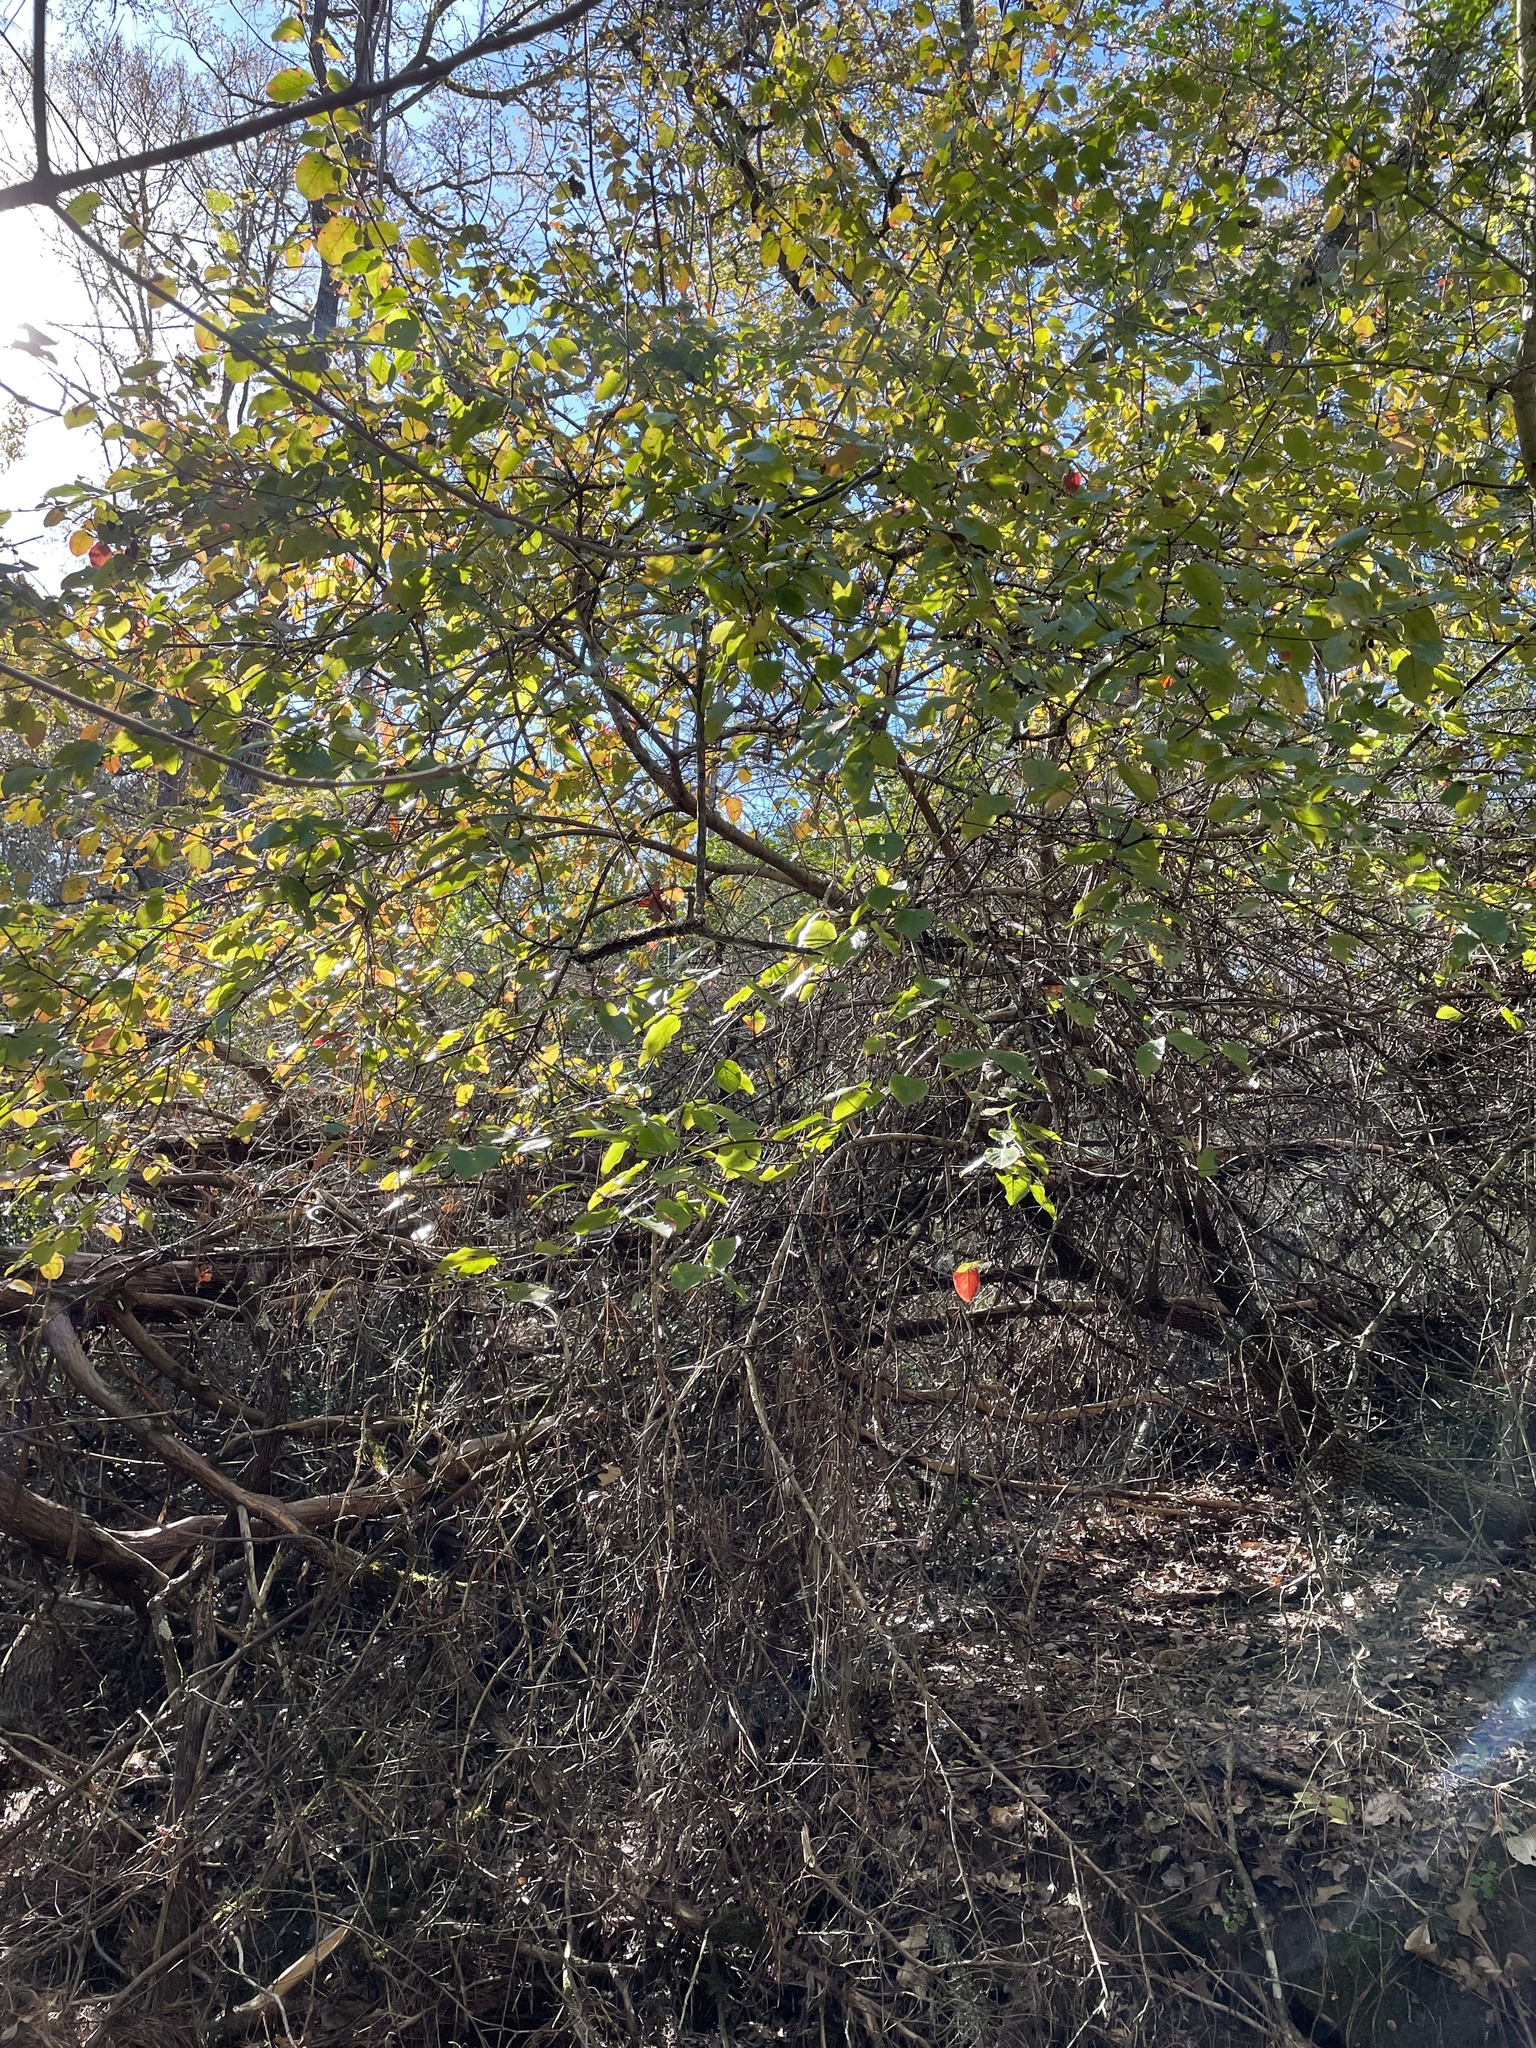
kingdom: Plantae
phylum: Tracheophyta
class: Magnoliopsida
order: Dipsacales
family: Viburnaceae
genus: Viburnum
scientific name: Viburnum rufidulum
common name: Blue haw
